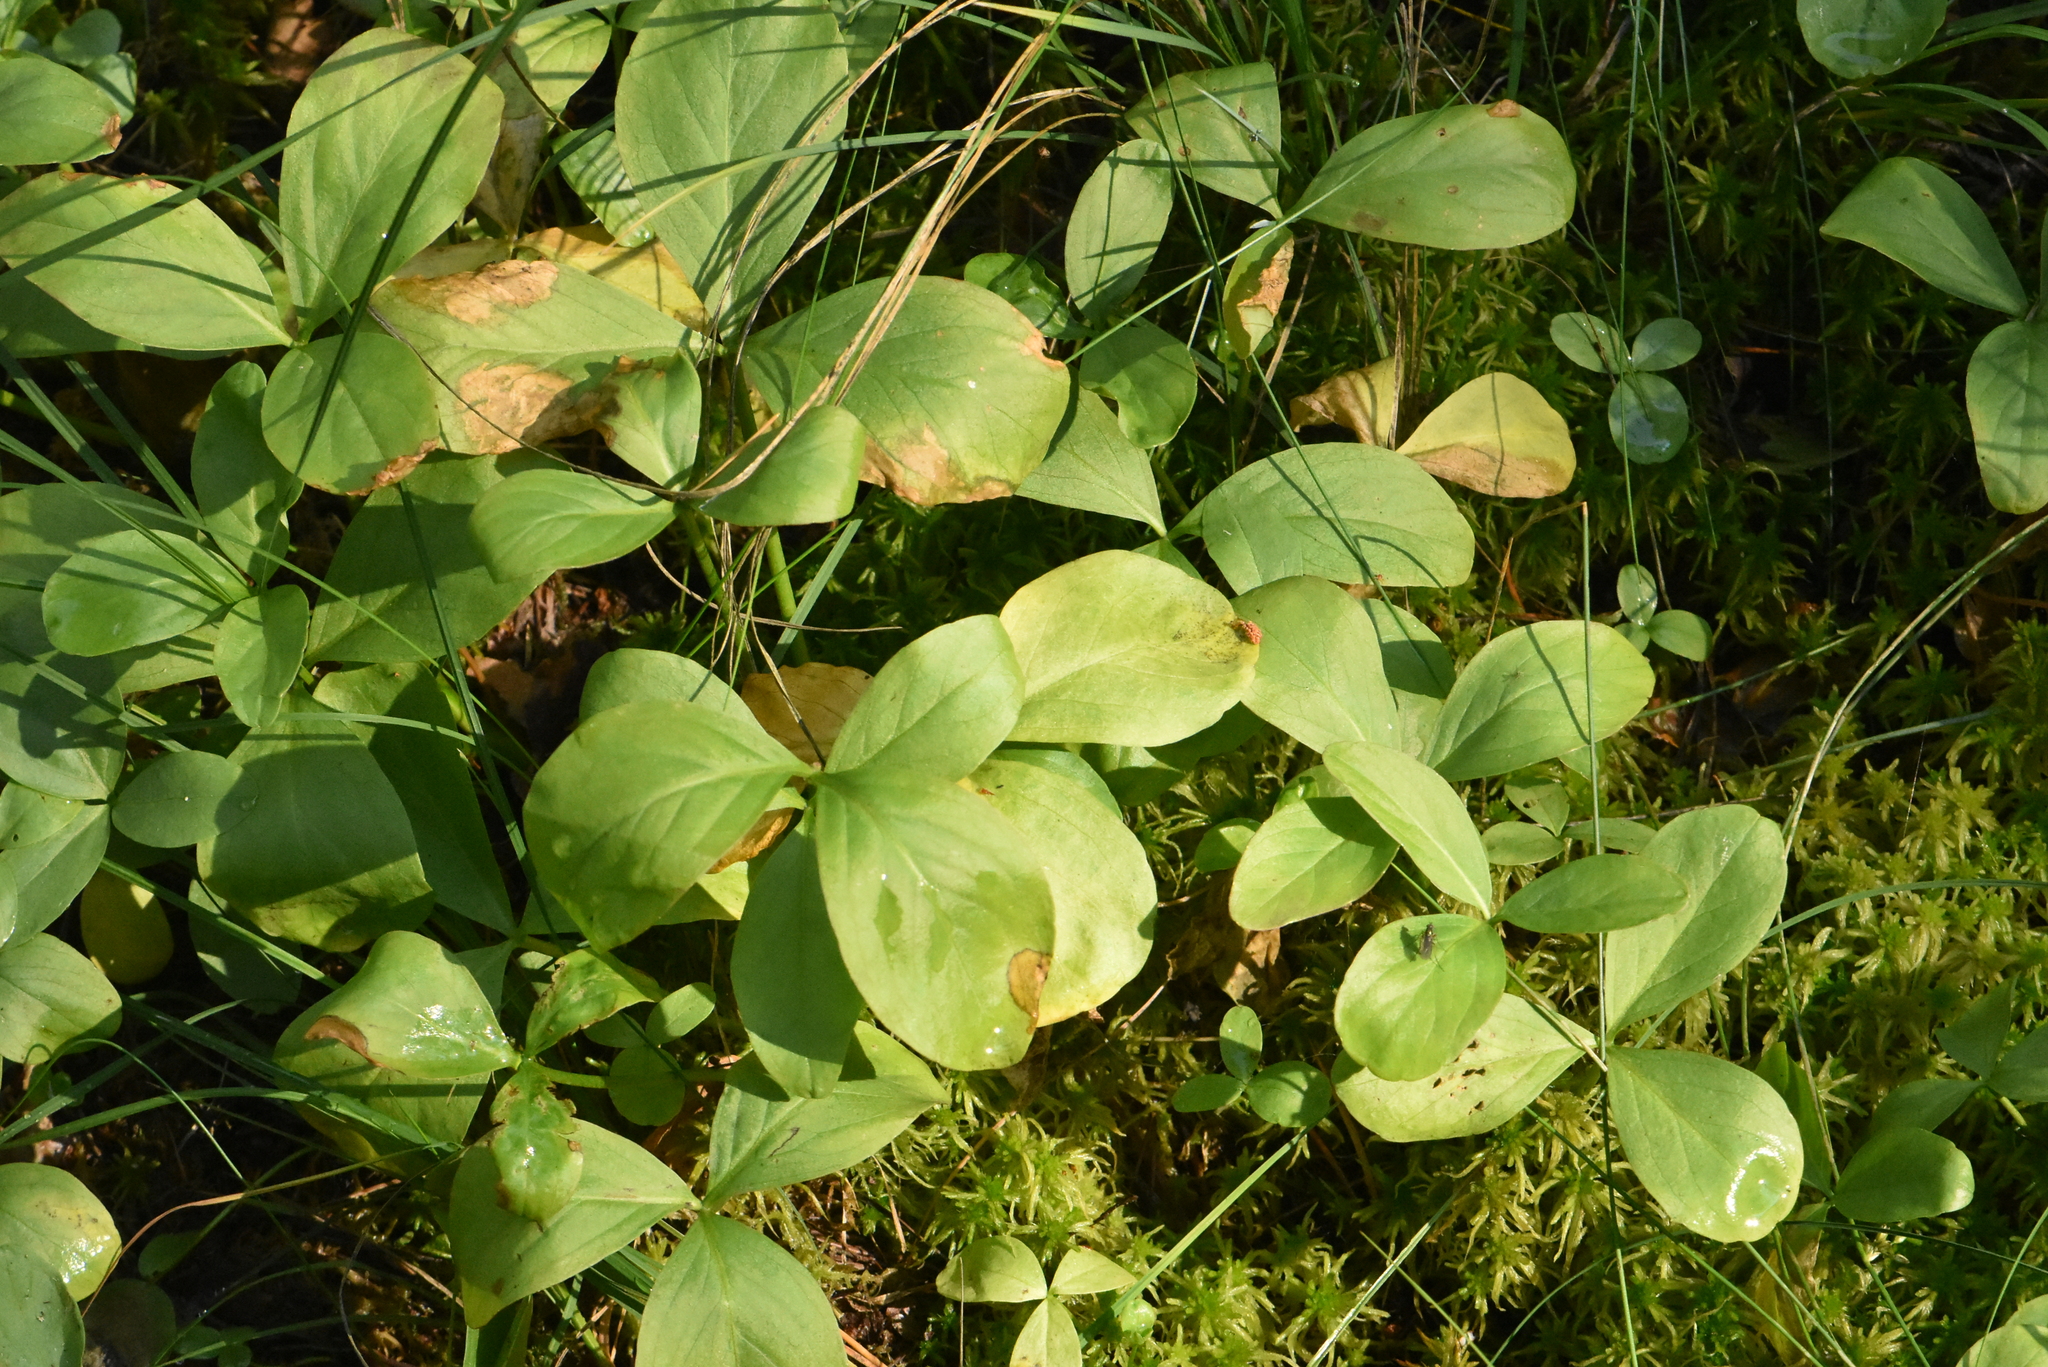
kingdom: Plantae
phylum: Tracheophyta
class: Magnoliopsida
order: Asterales
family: Menyanthaceae
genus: Menyanthes
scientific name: Menyanthes trifoliata
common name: Bogbean
